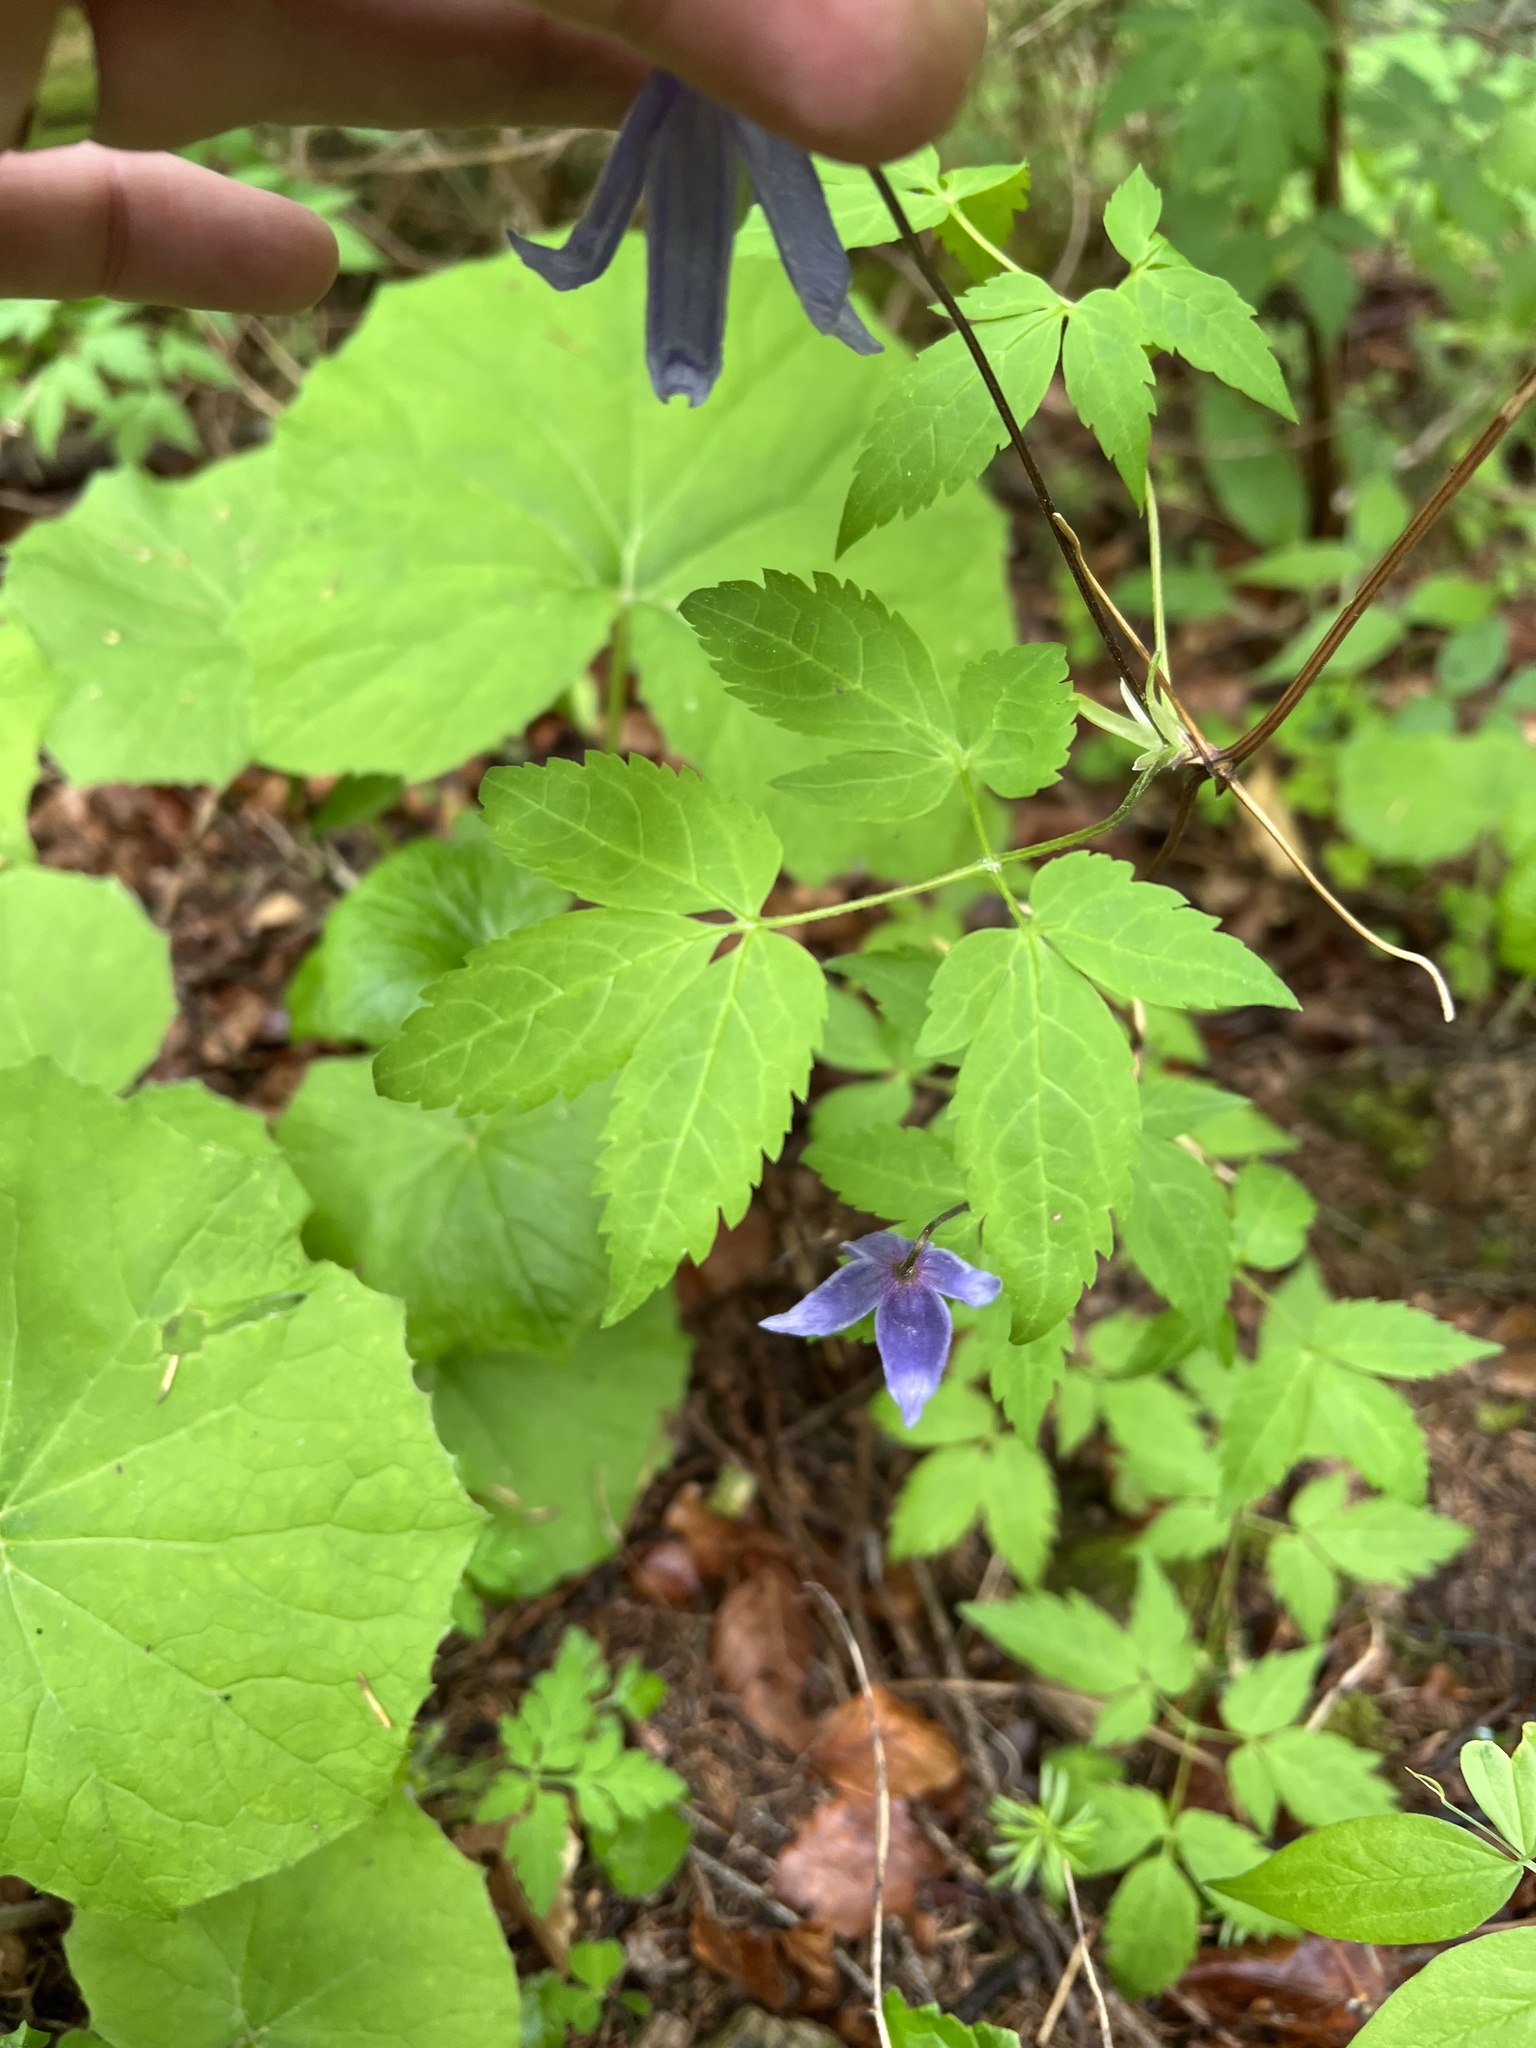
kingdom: Plantae
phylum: Tracheophyta
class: Magnoliopsida
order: Ranunculales
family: Ranunculaceae
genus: Clematis
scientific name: Clematis alpina
